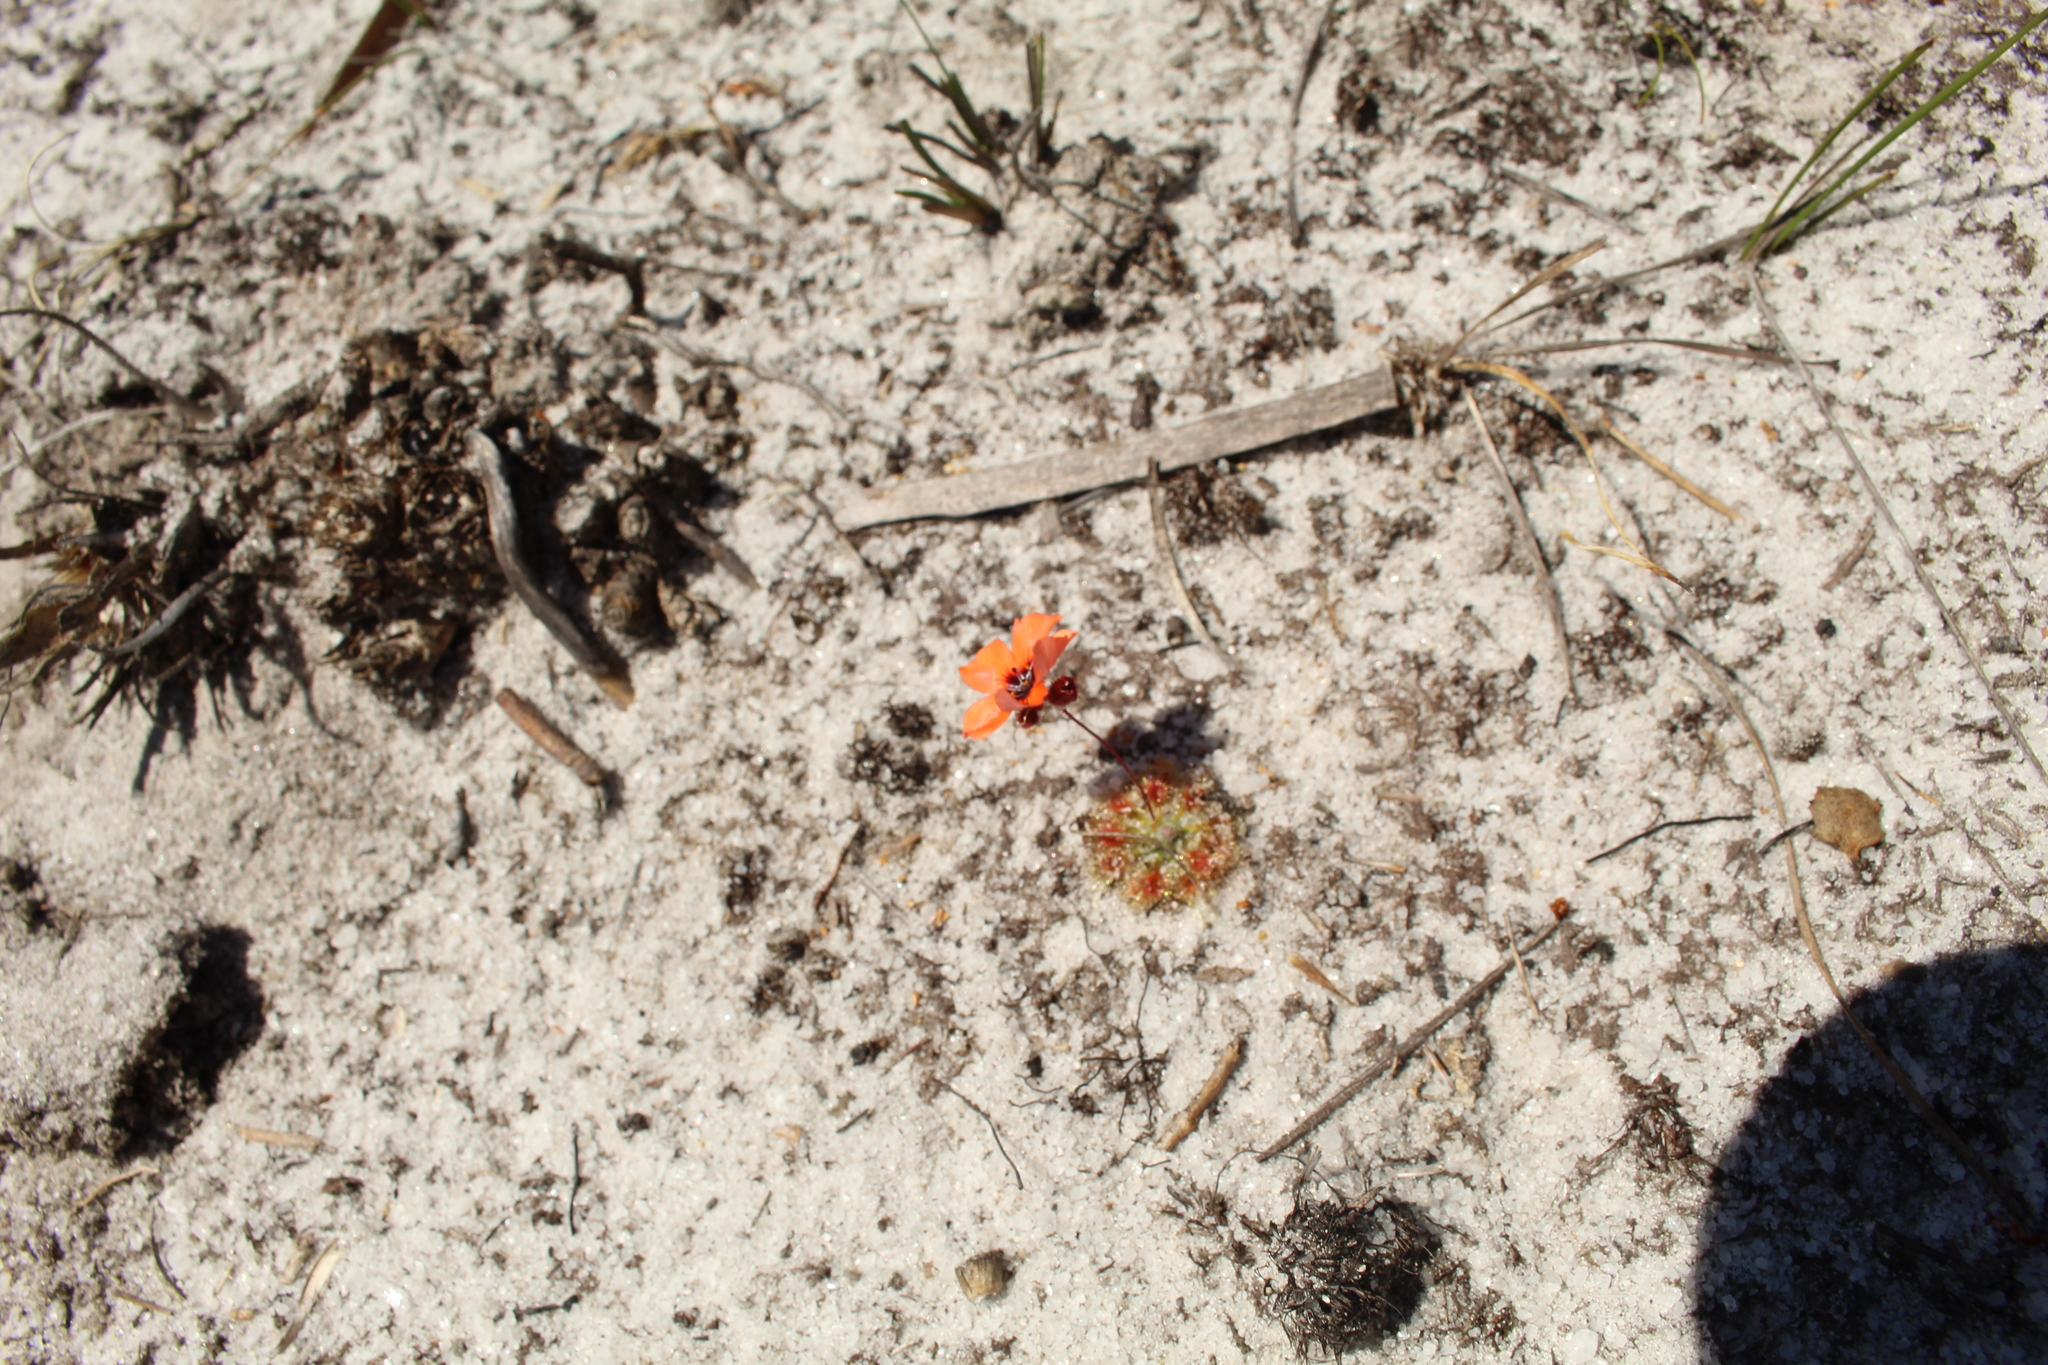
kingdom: Plantae
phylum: Tracheophyta
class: Magnoliopsida
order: Caryophyllales
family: Droseraceae
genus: Drosera
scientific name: Drosera platystigma
